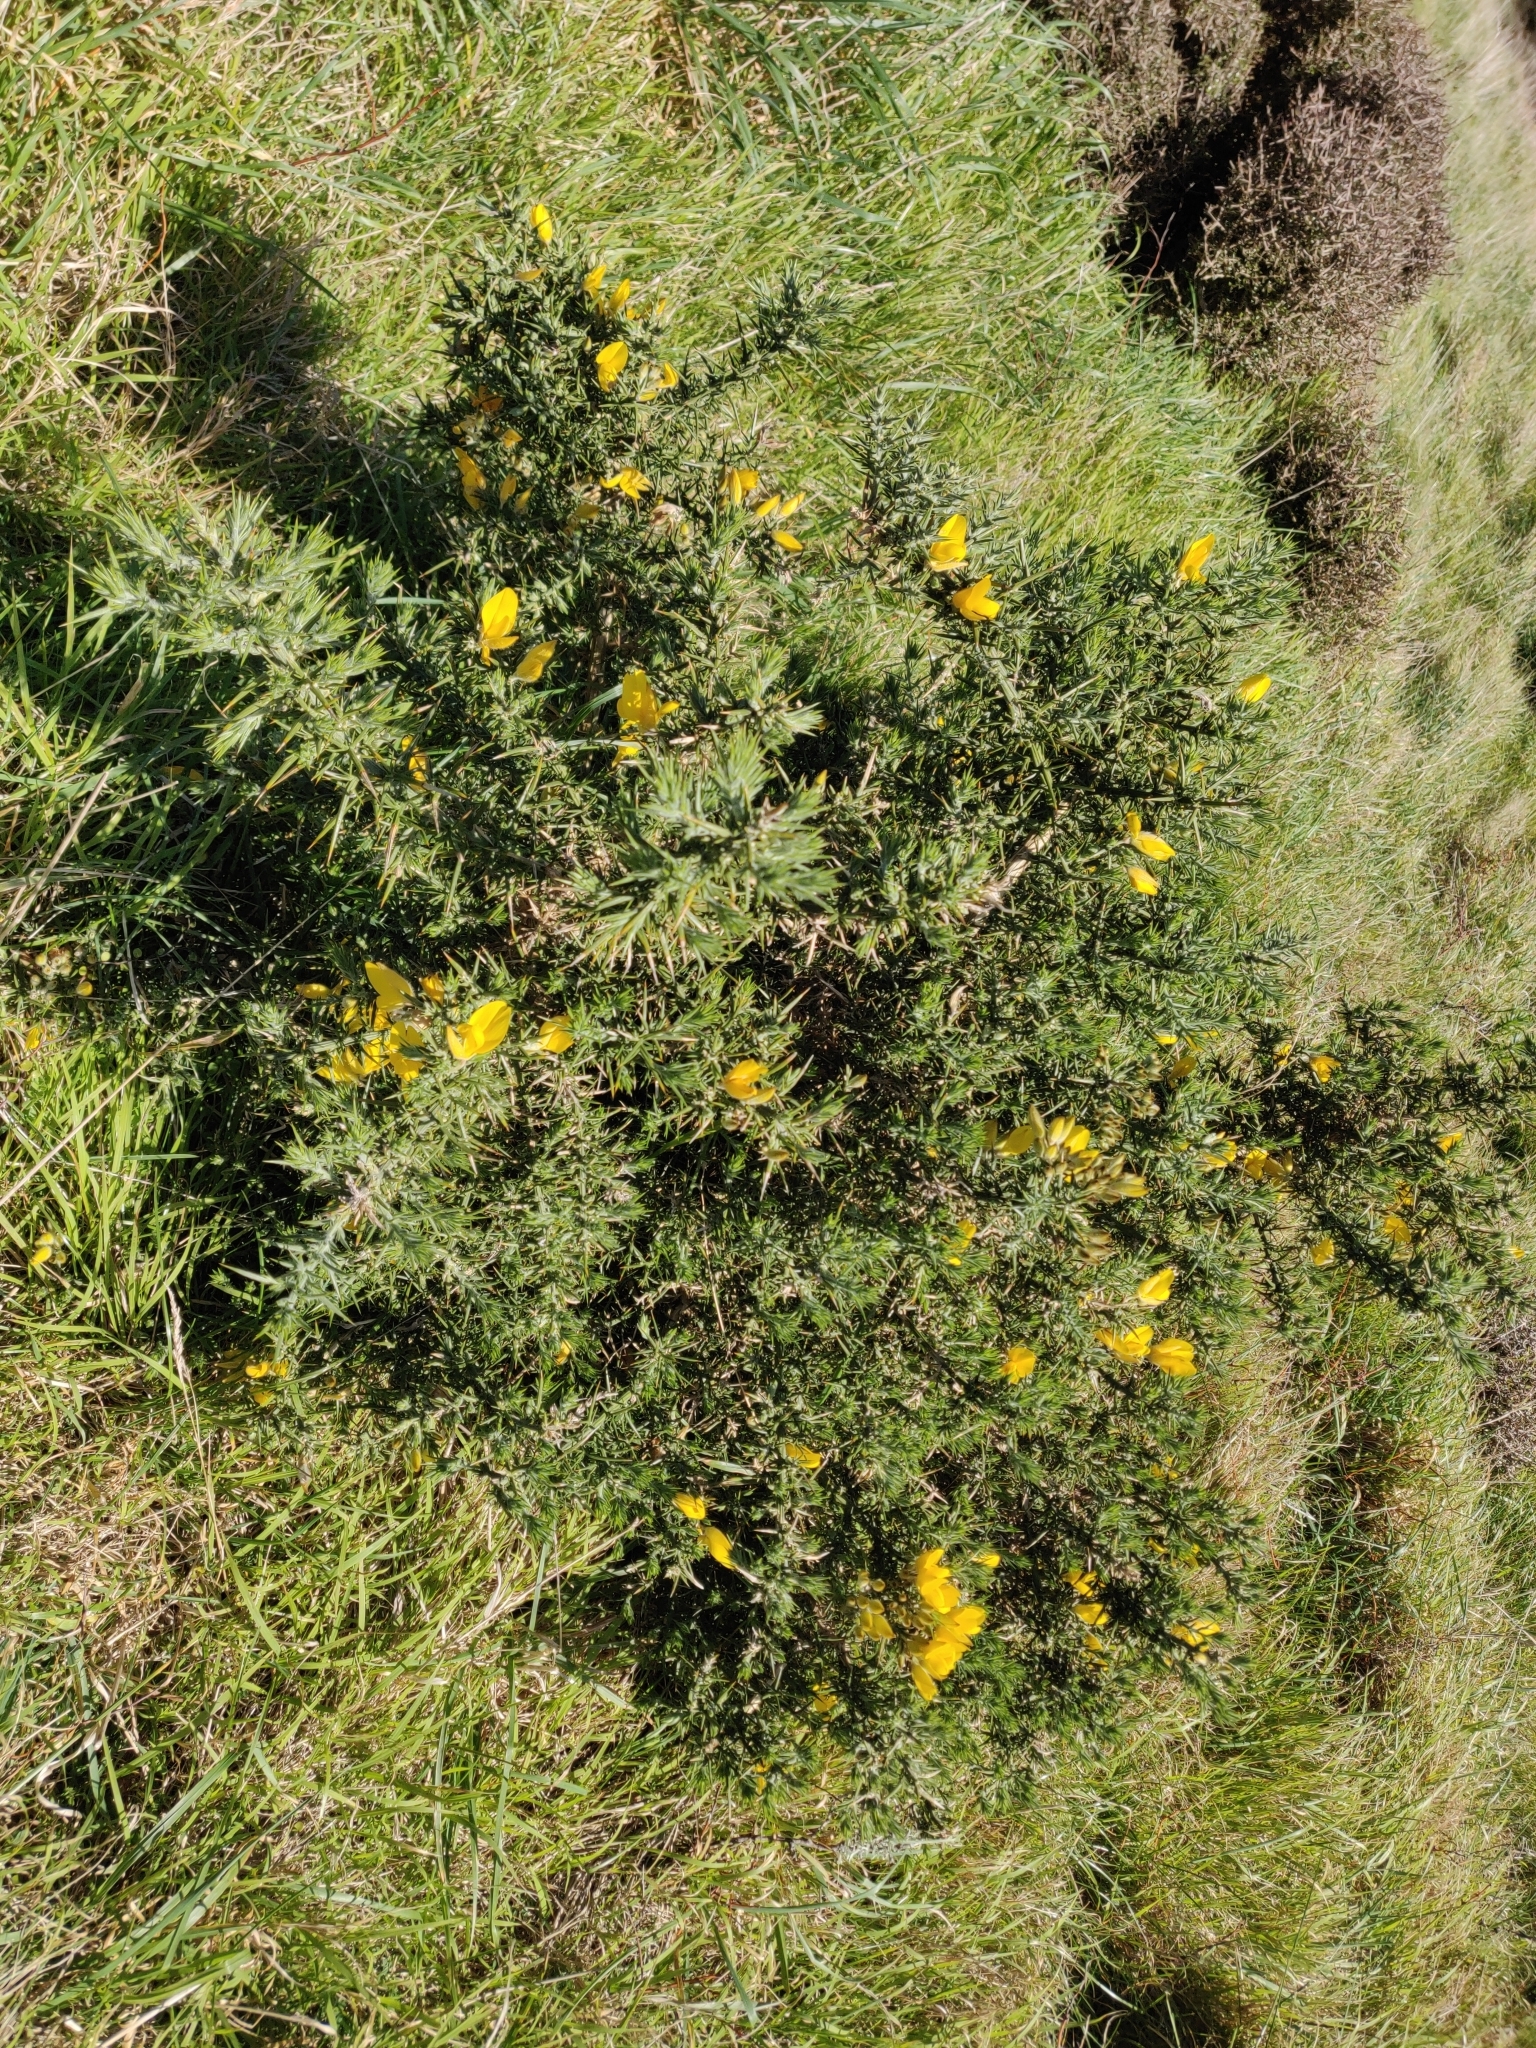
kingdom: Plantae
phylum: Tracheophyta
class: Magnoliopsida
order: Fabales
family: Fabaceae
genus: Ulex
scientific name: Ulex europaeus
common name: Common gorse
